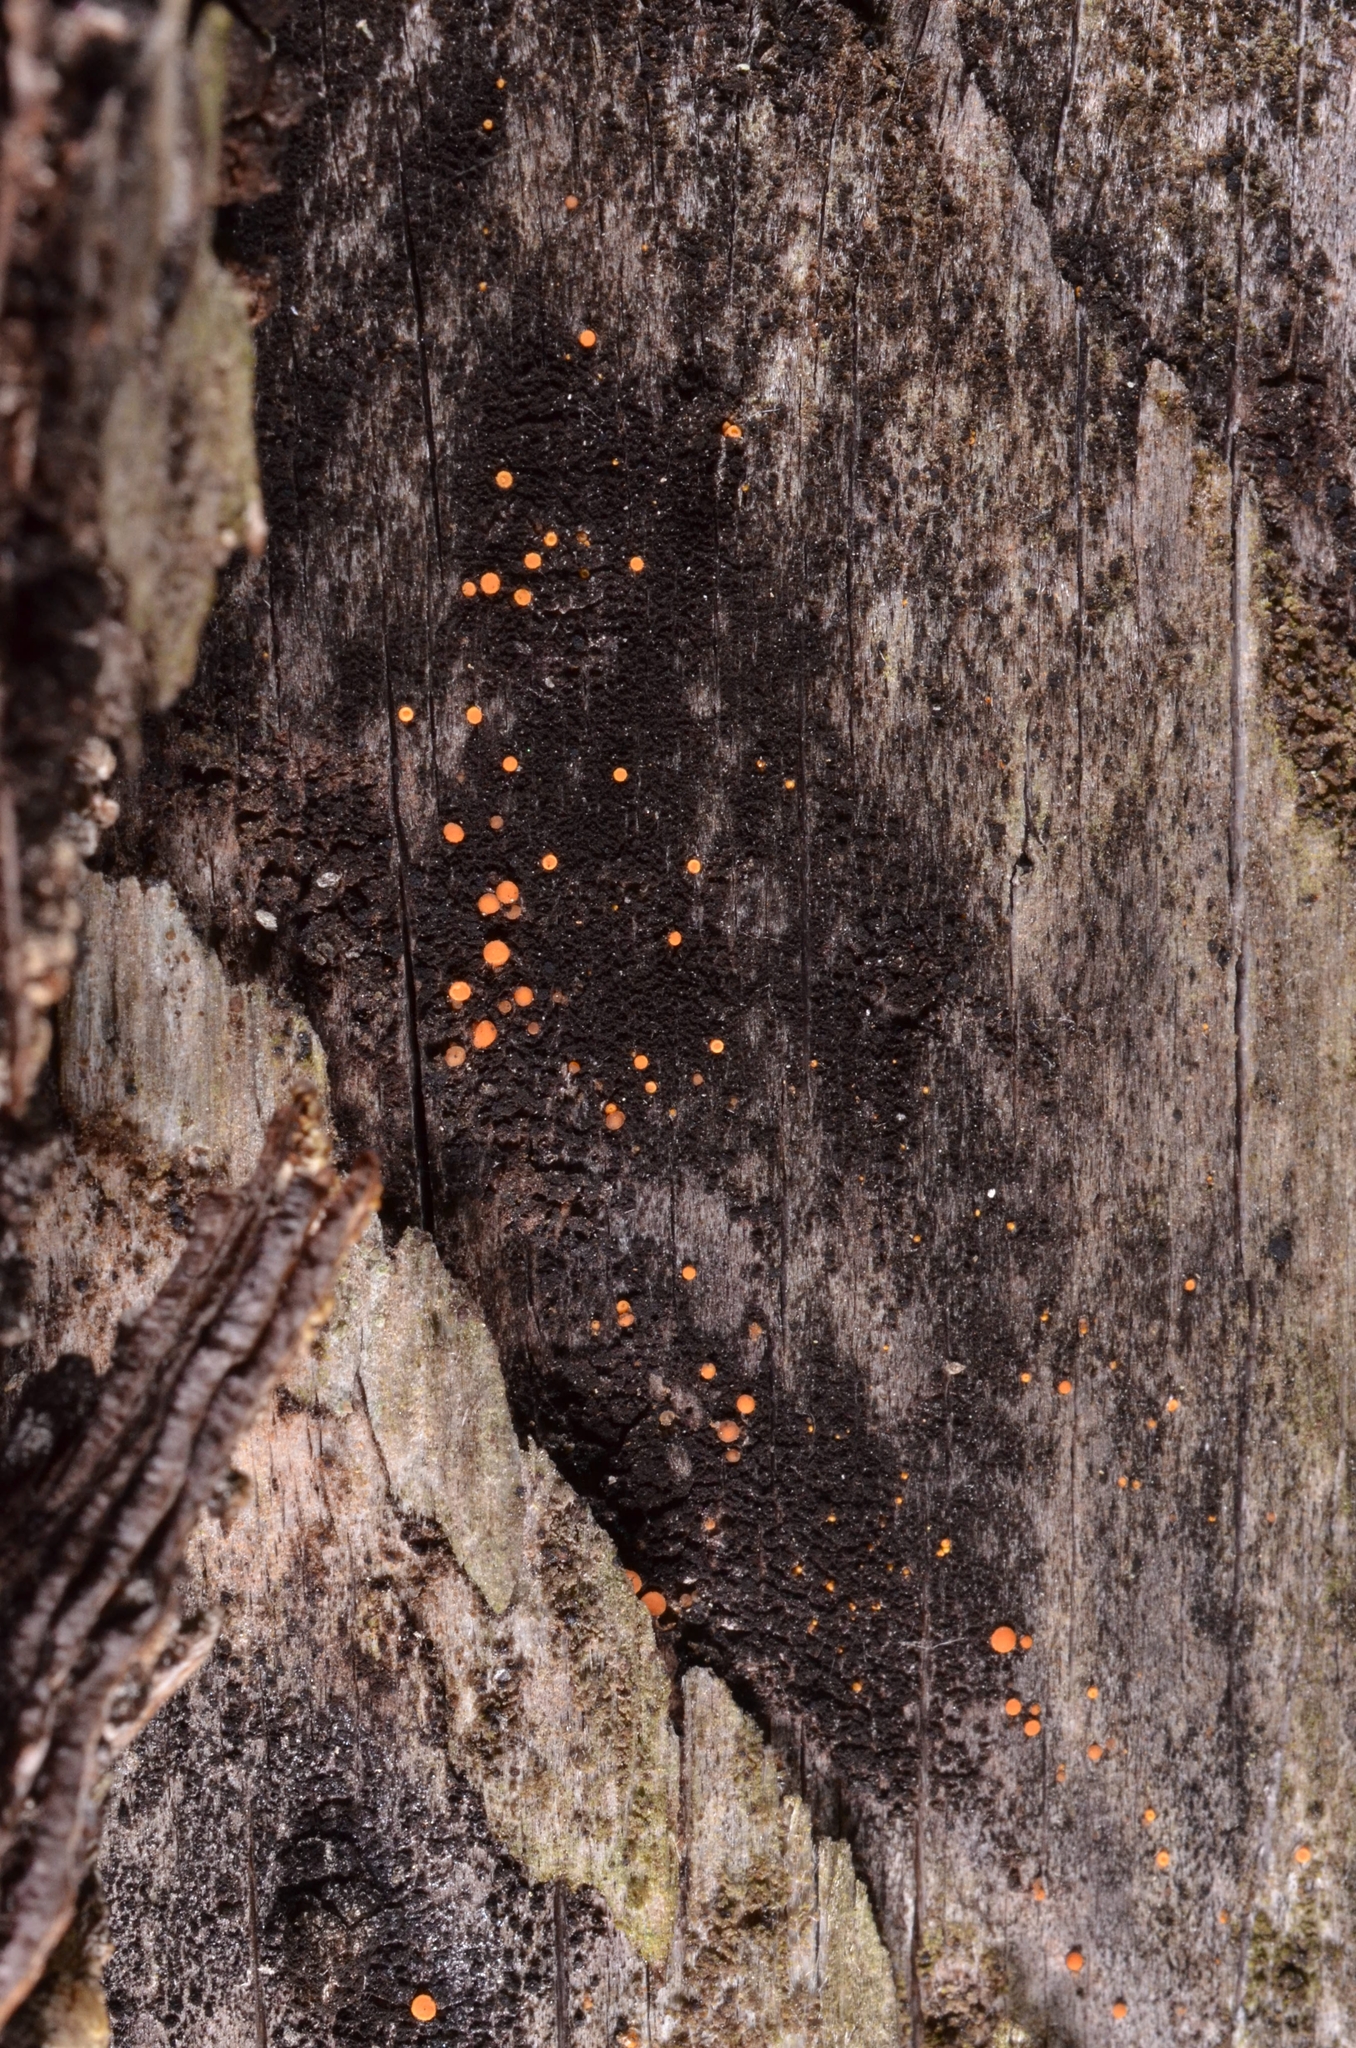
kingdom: Fungi
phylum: Ascomycota
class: Sareomycetes
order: Sareales
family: Sareaceae
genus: Sarea
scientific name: Sarea resinae
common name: Sarea lichen
